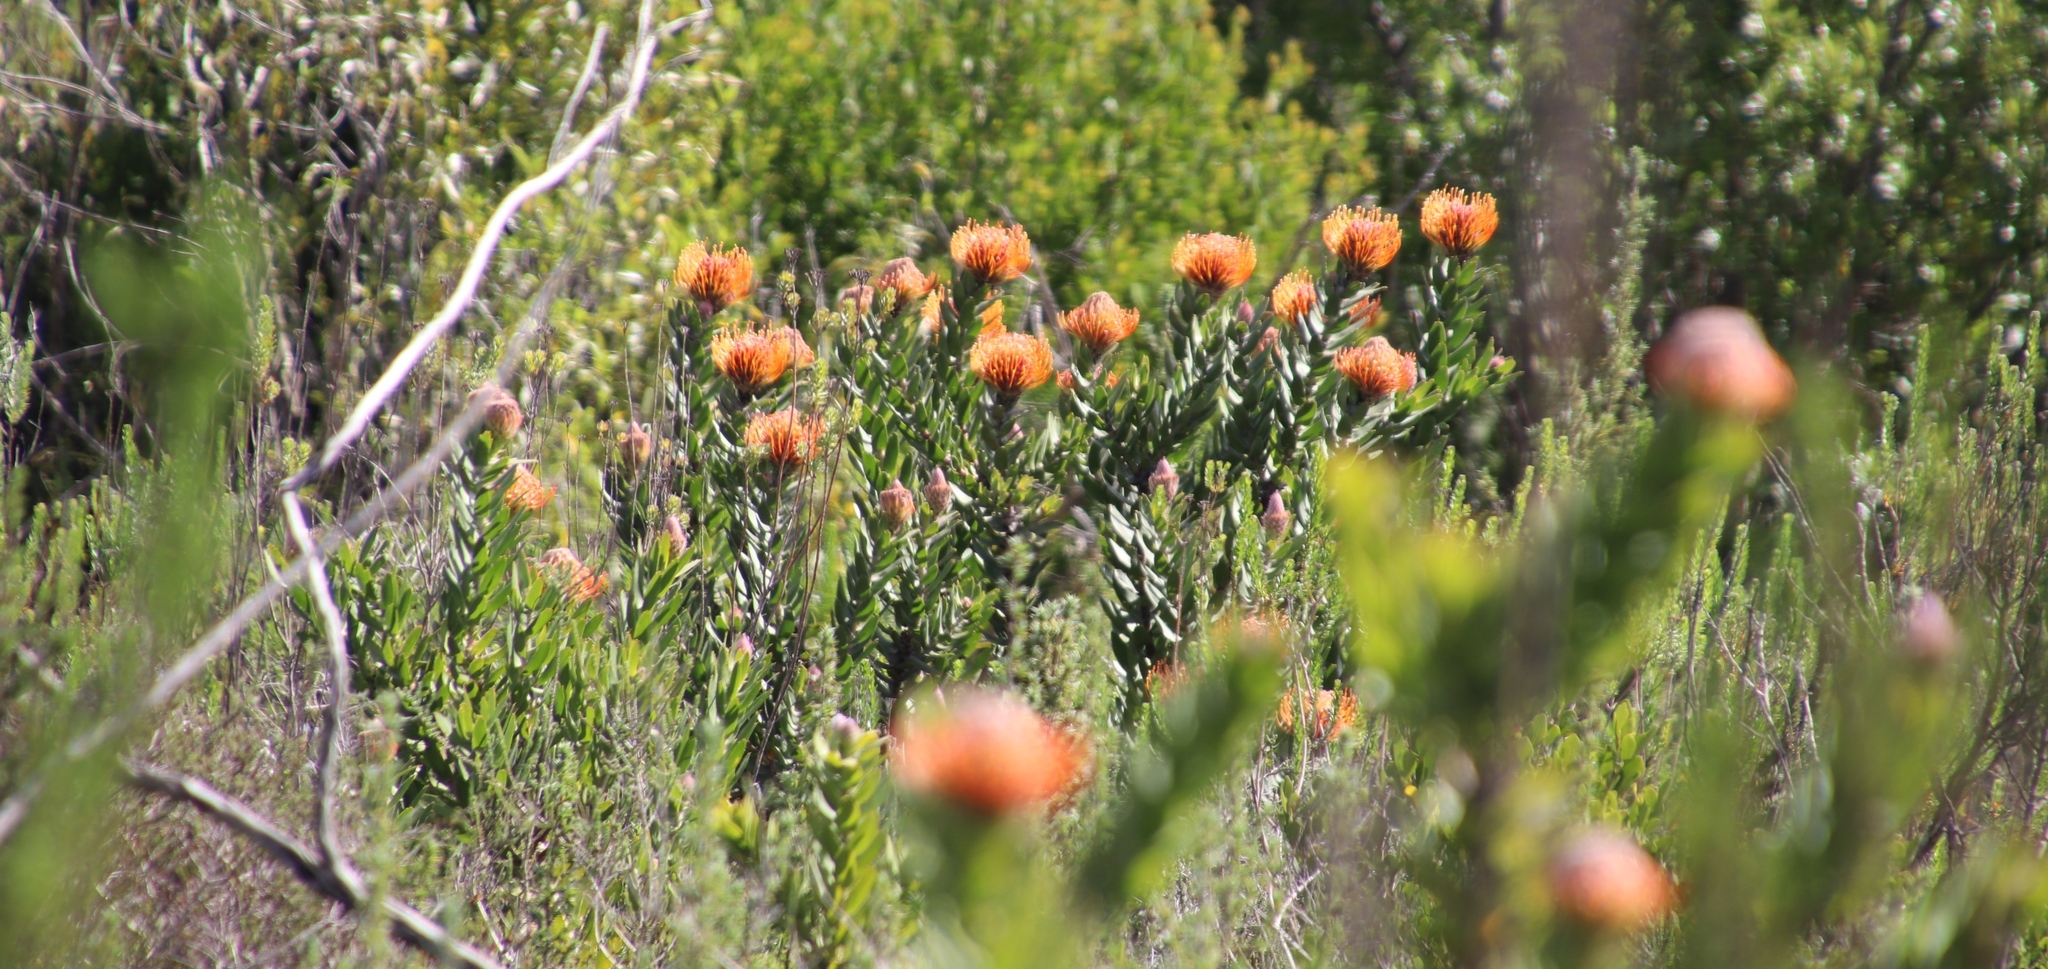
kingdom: Plantae
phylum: Tracheophyta
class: Magnoliopsida
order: Proteales
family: Proteaceae
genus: Leucospermum
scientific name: Leucospermum vestitum
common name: Silky-hair pincushion
